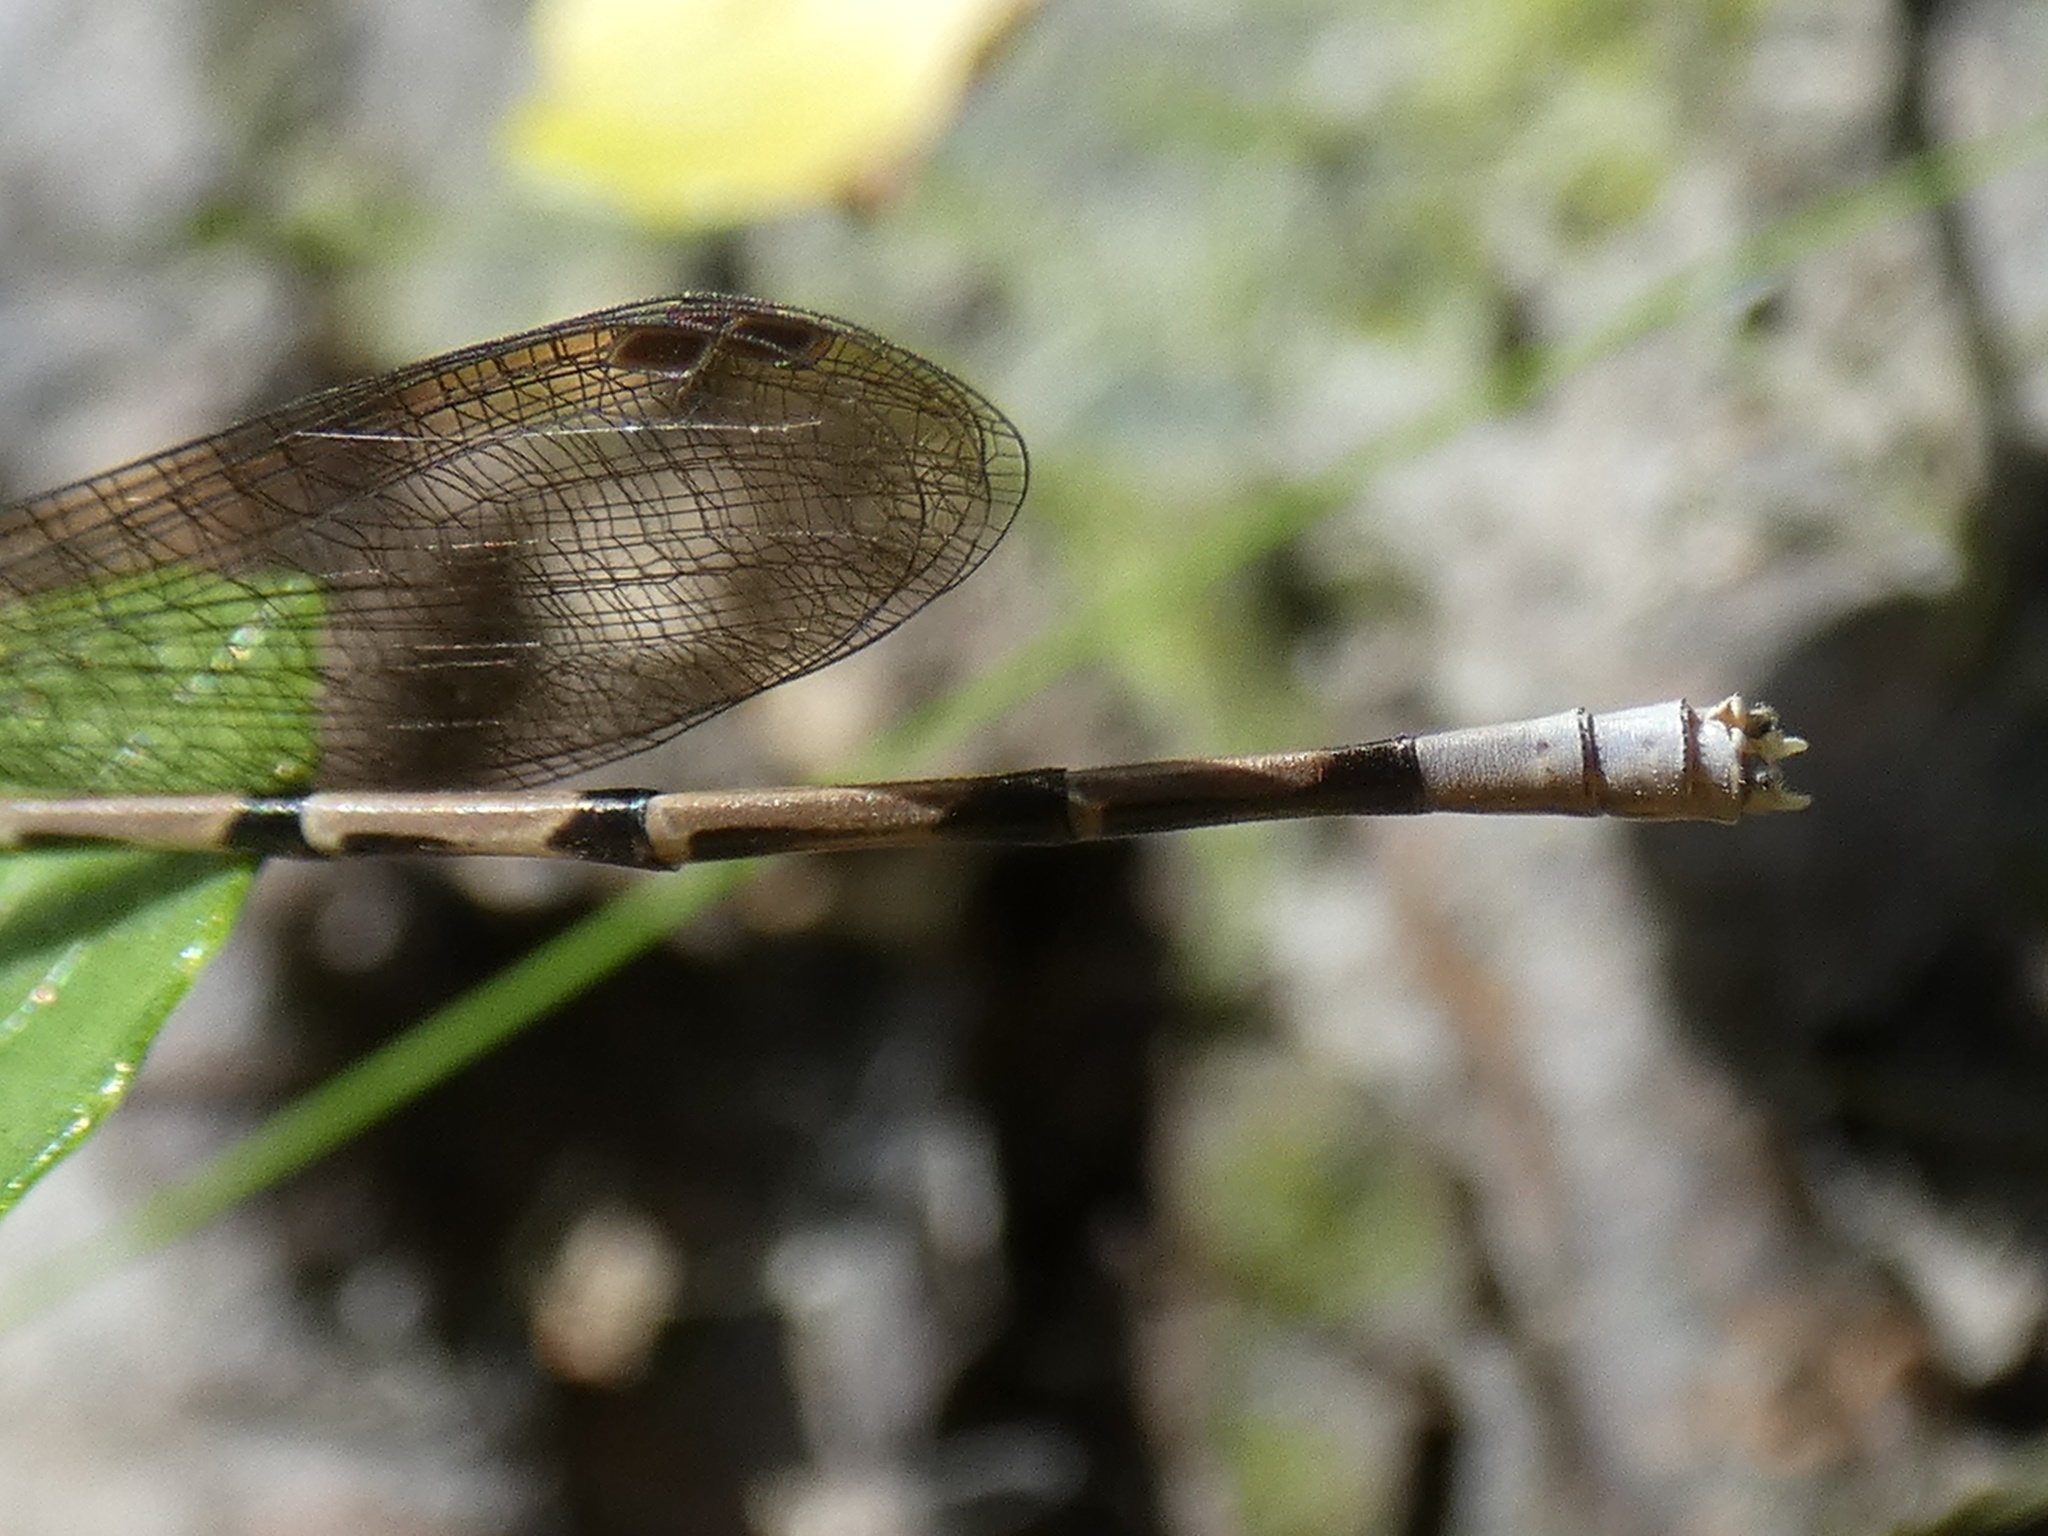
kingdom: Animalia
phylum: Arthropoda
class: Insecta
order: Odonata
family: Coenagrionidae
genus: Argia
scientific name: Argia elongata
